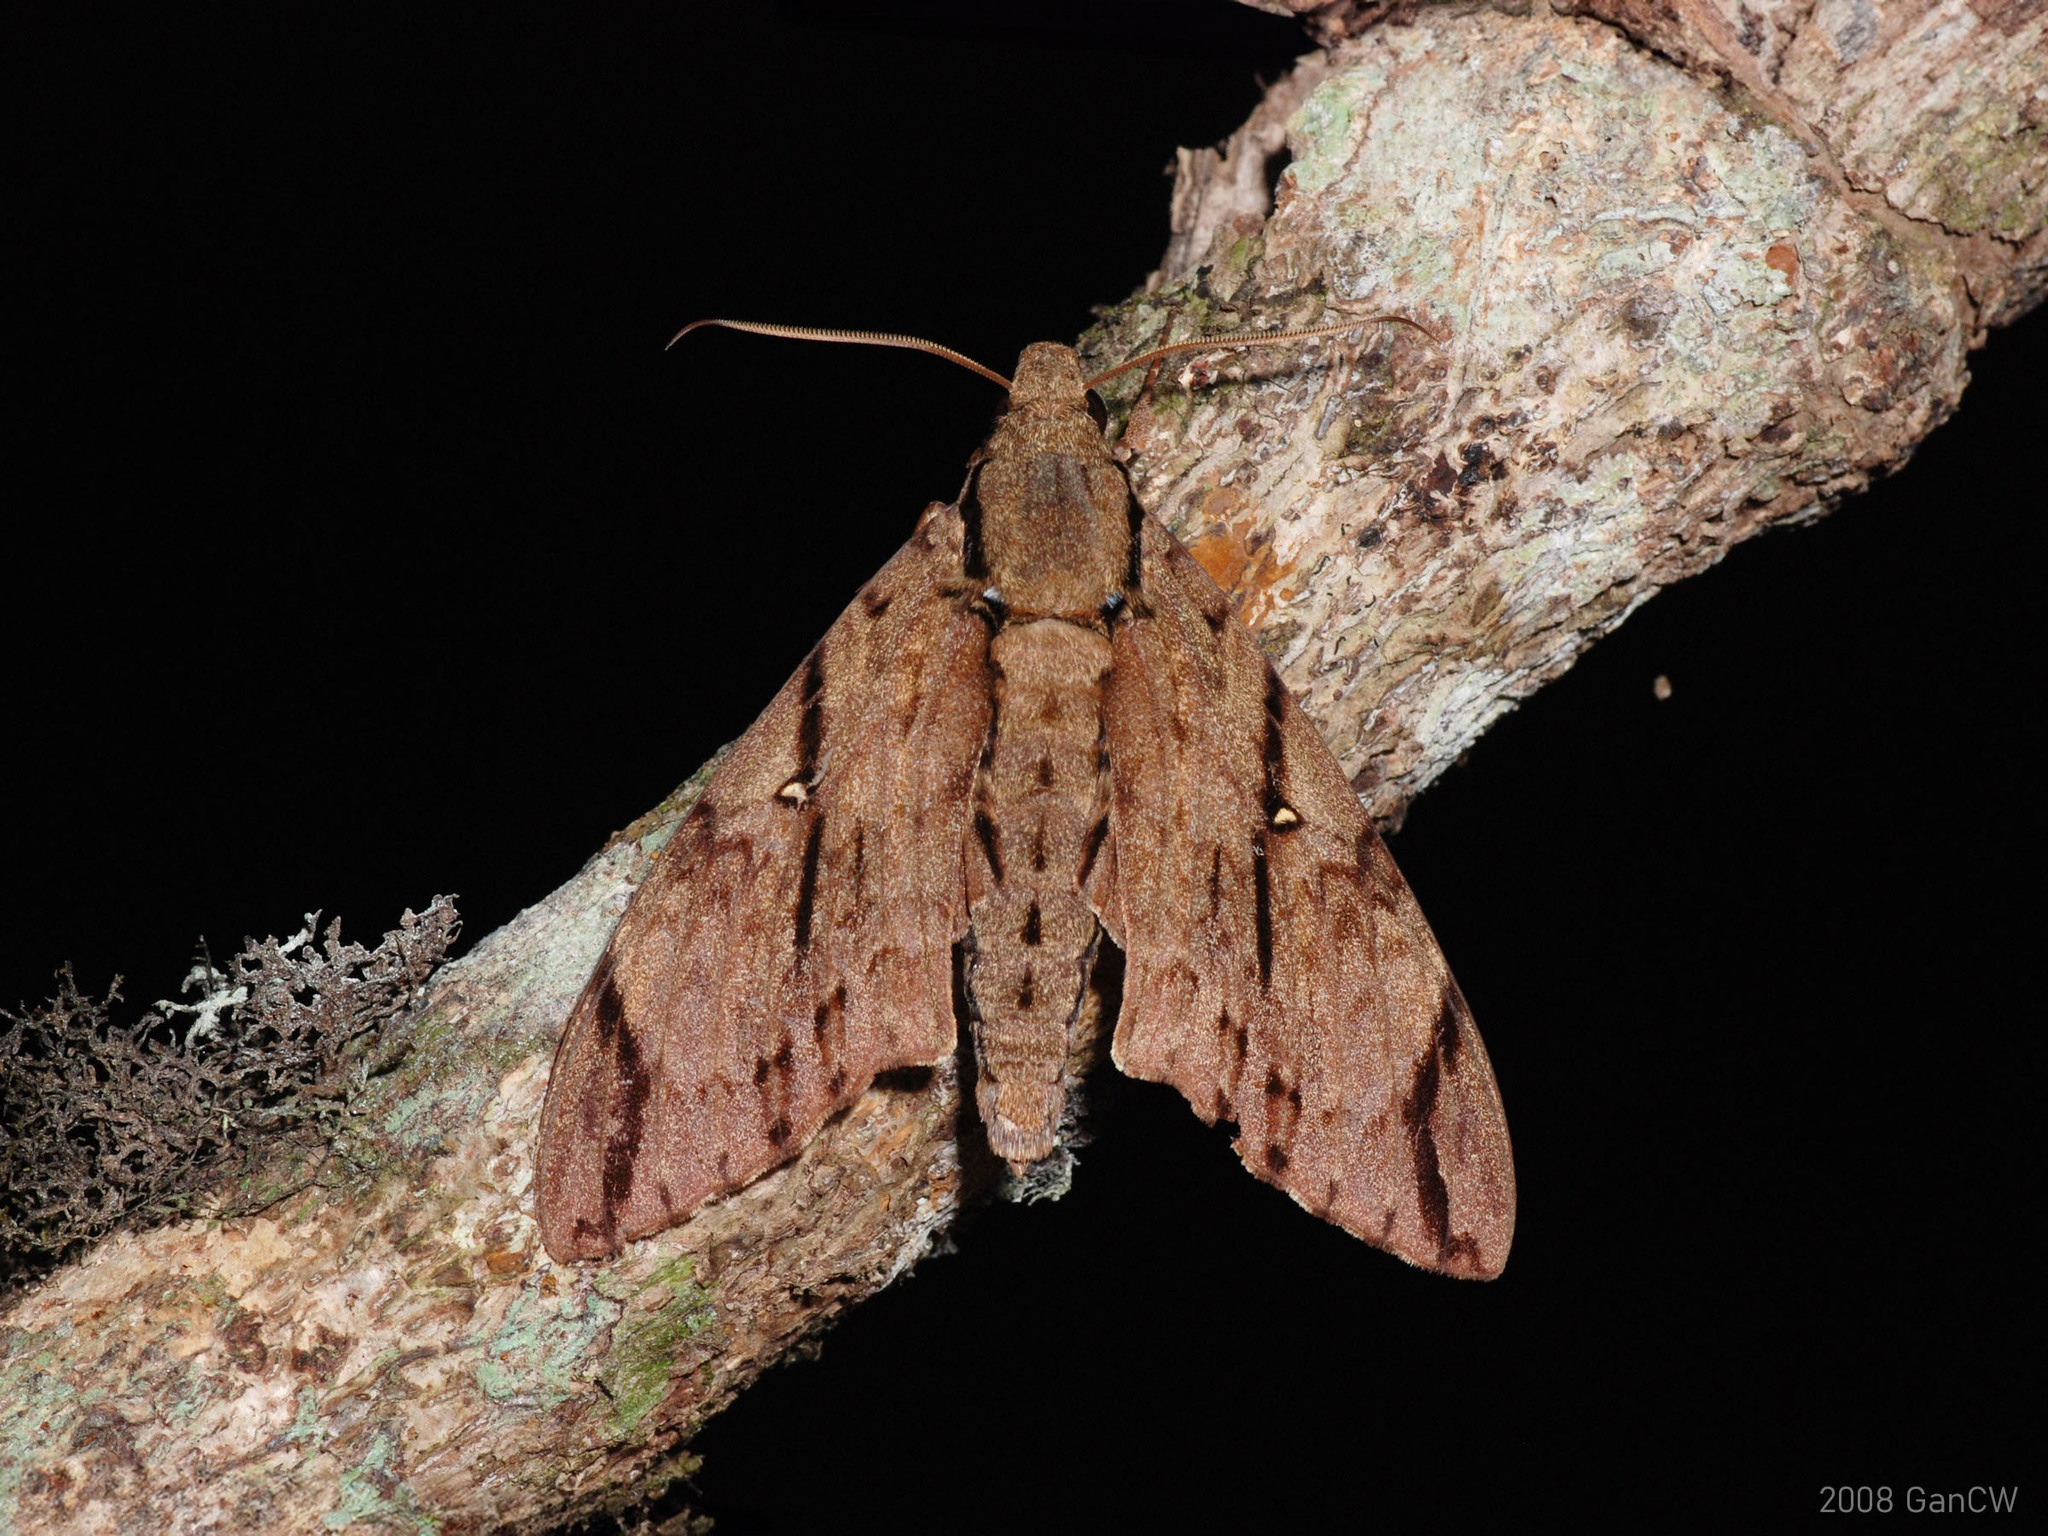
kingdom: Animalia
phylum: Arthropoda
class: Insecta
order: Lepidoptera
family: Sphingidae
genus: Cerberonoton
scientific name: Cerberonoton rubescens
